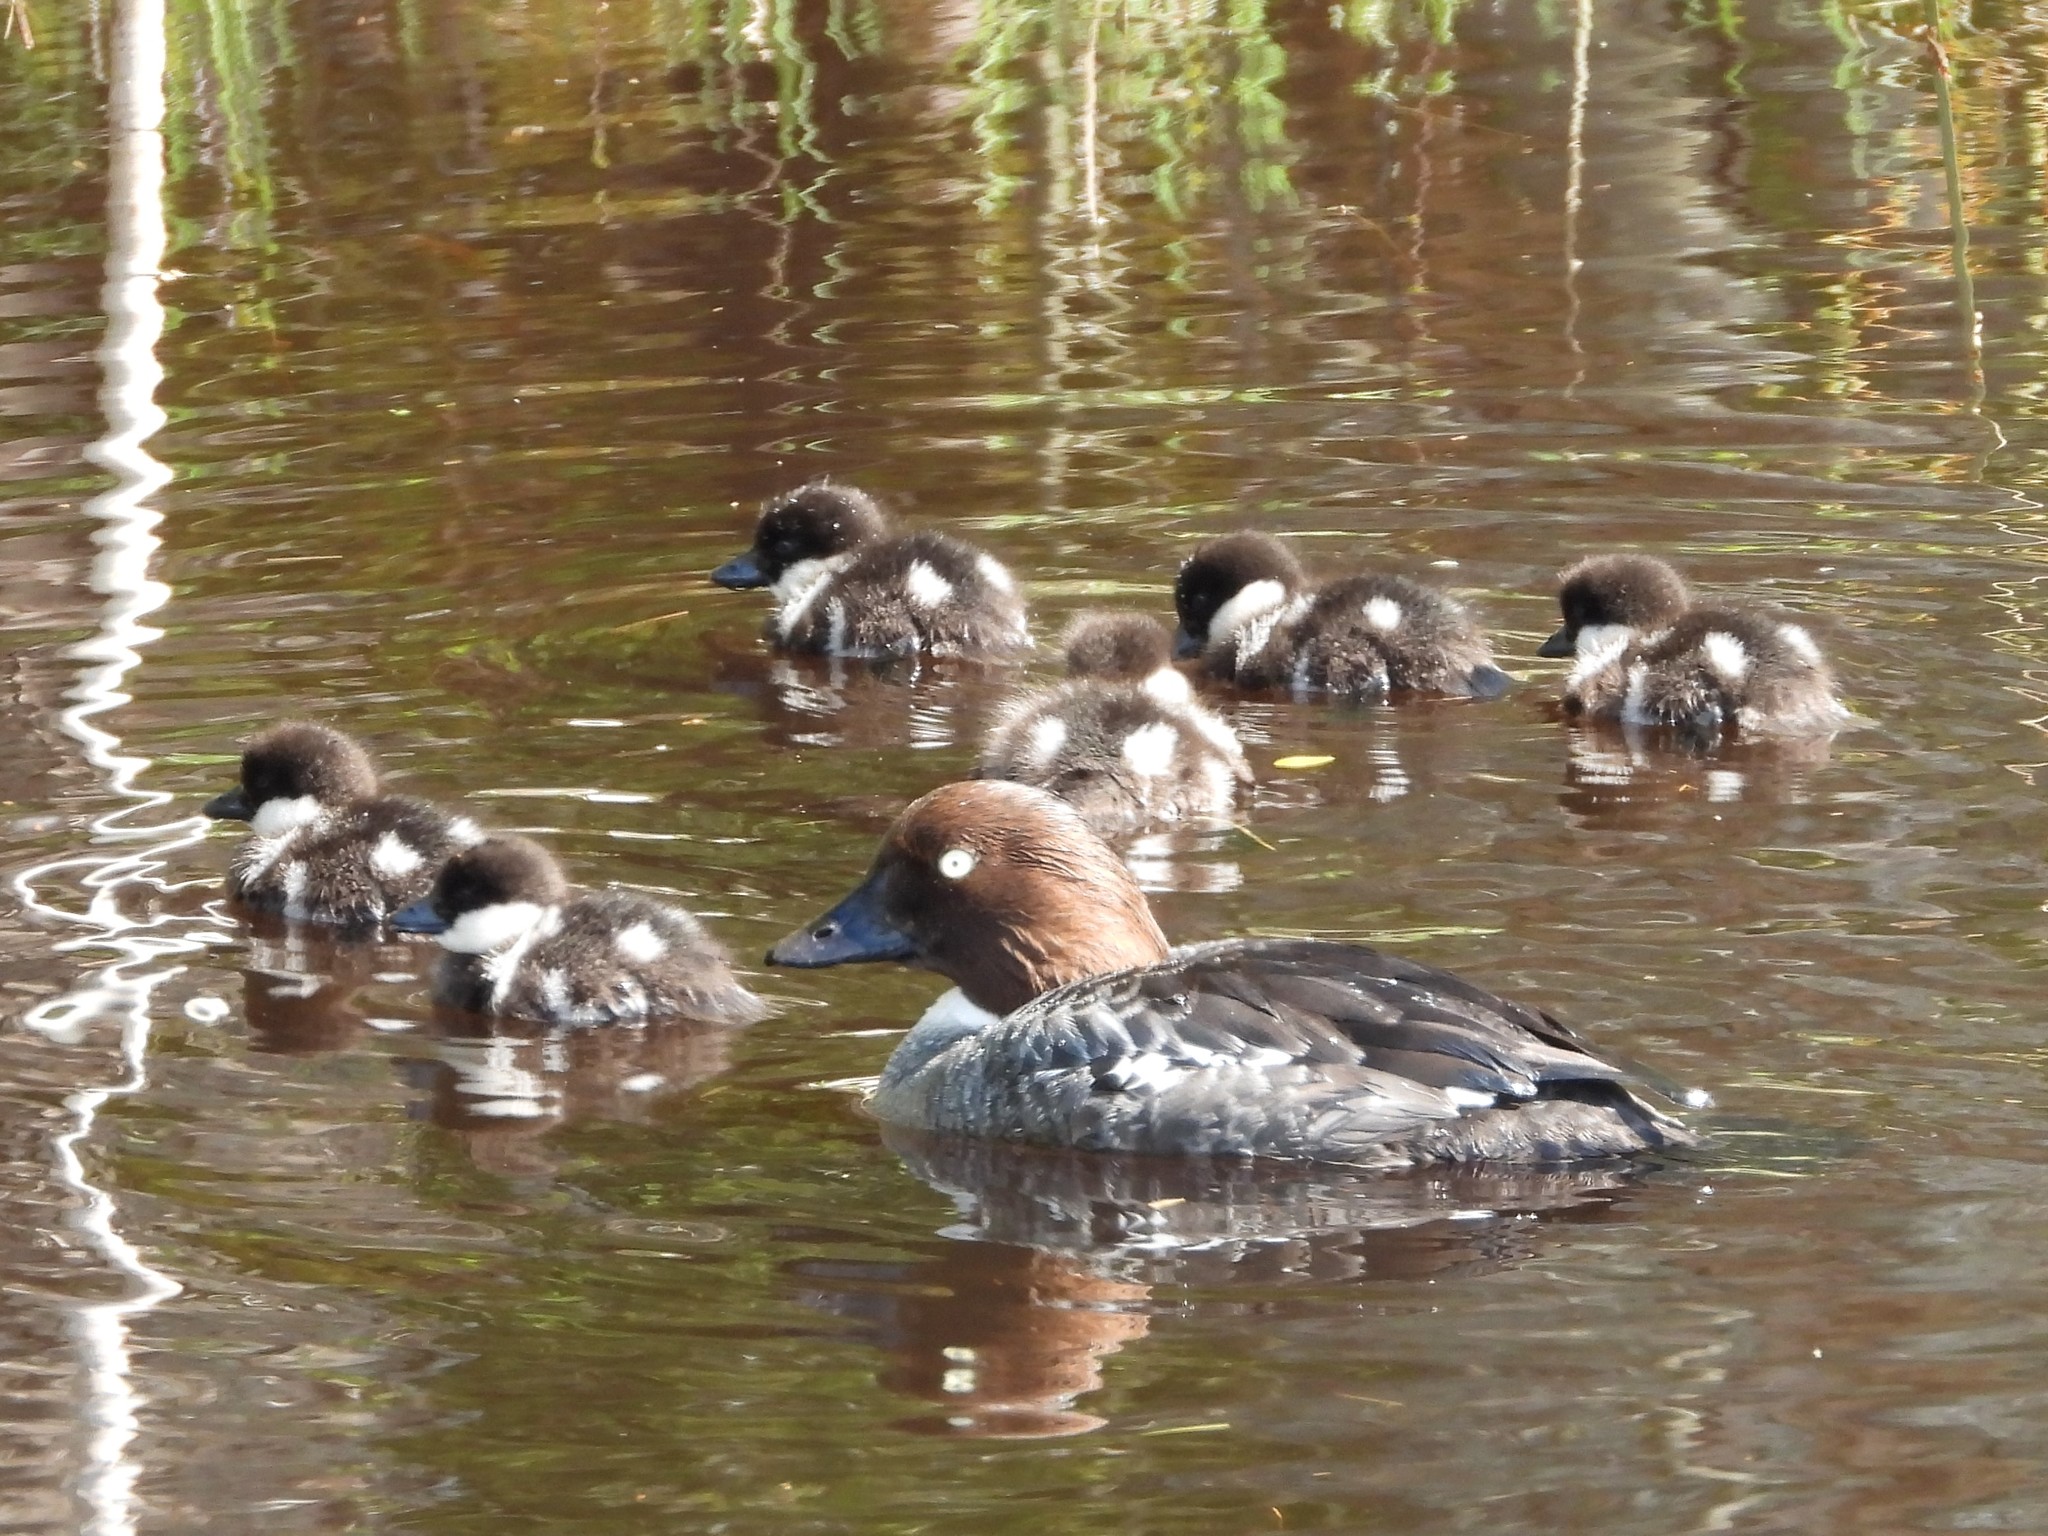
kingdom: Animalia
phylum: Chordata
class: Aves
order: Anseriformes
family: Anatidae
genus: Bucephala
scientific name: Bucephala clangula
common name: Common goldeneye
